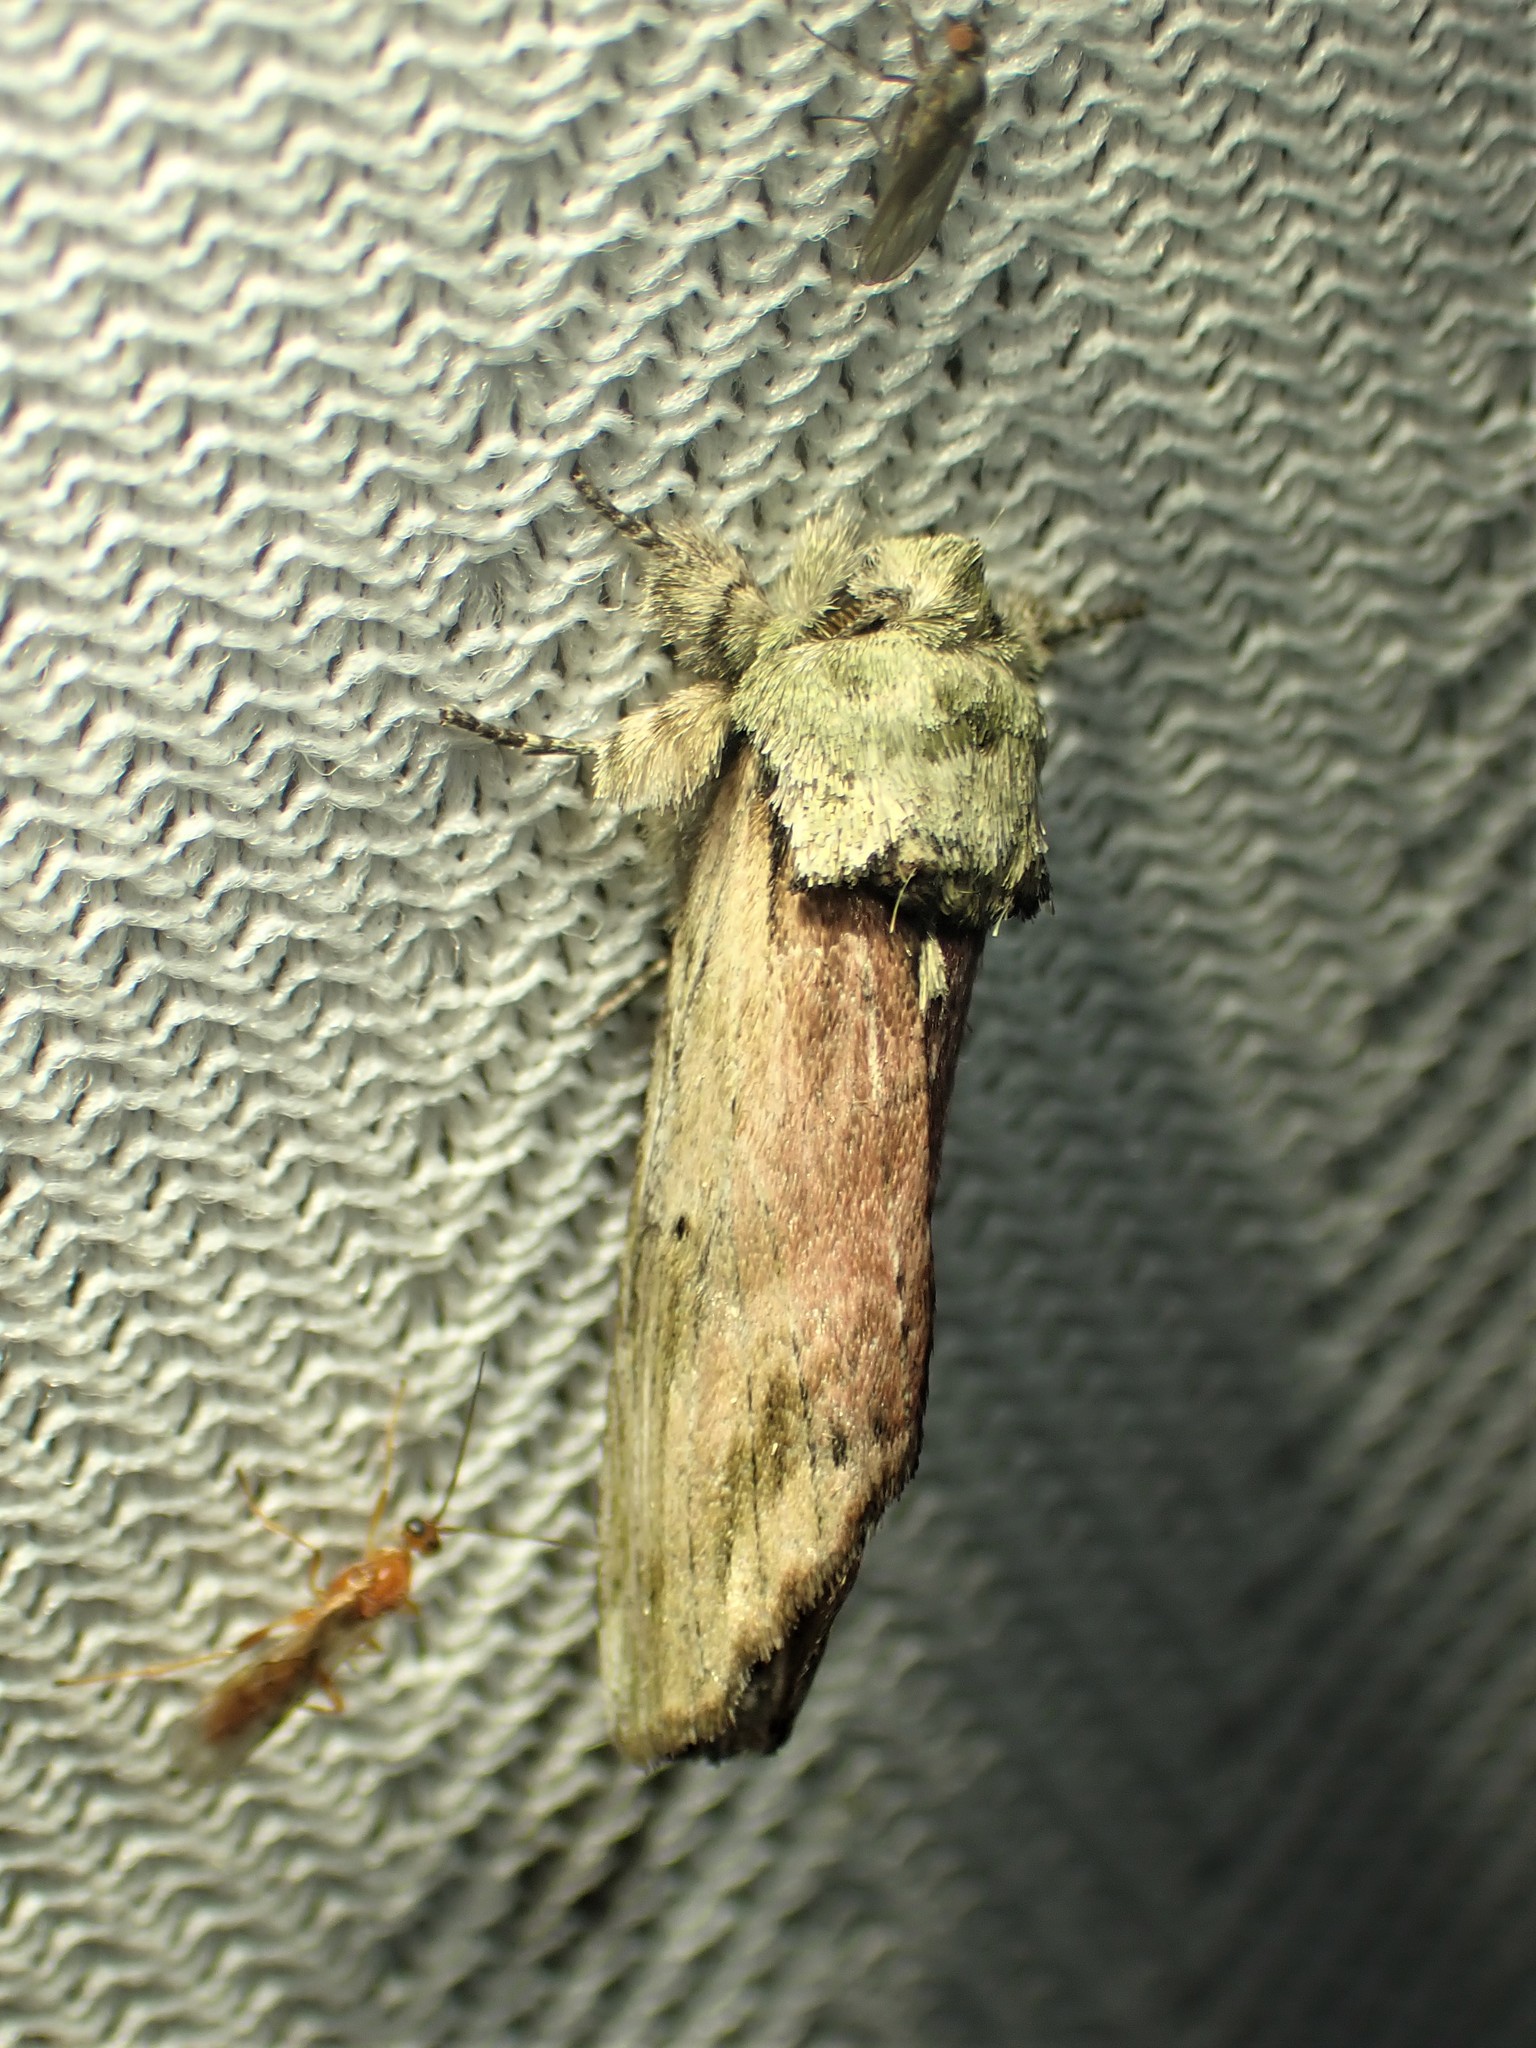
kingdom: Animalia
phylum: Arthropoda
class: Insecta
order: Lepidoptera
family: Notodontidae
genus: Schizura
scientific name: Schizura
